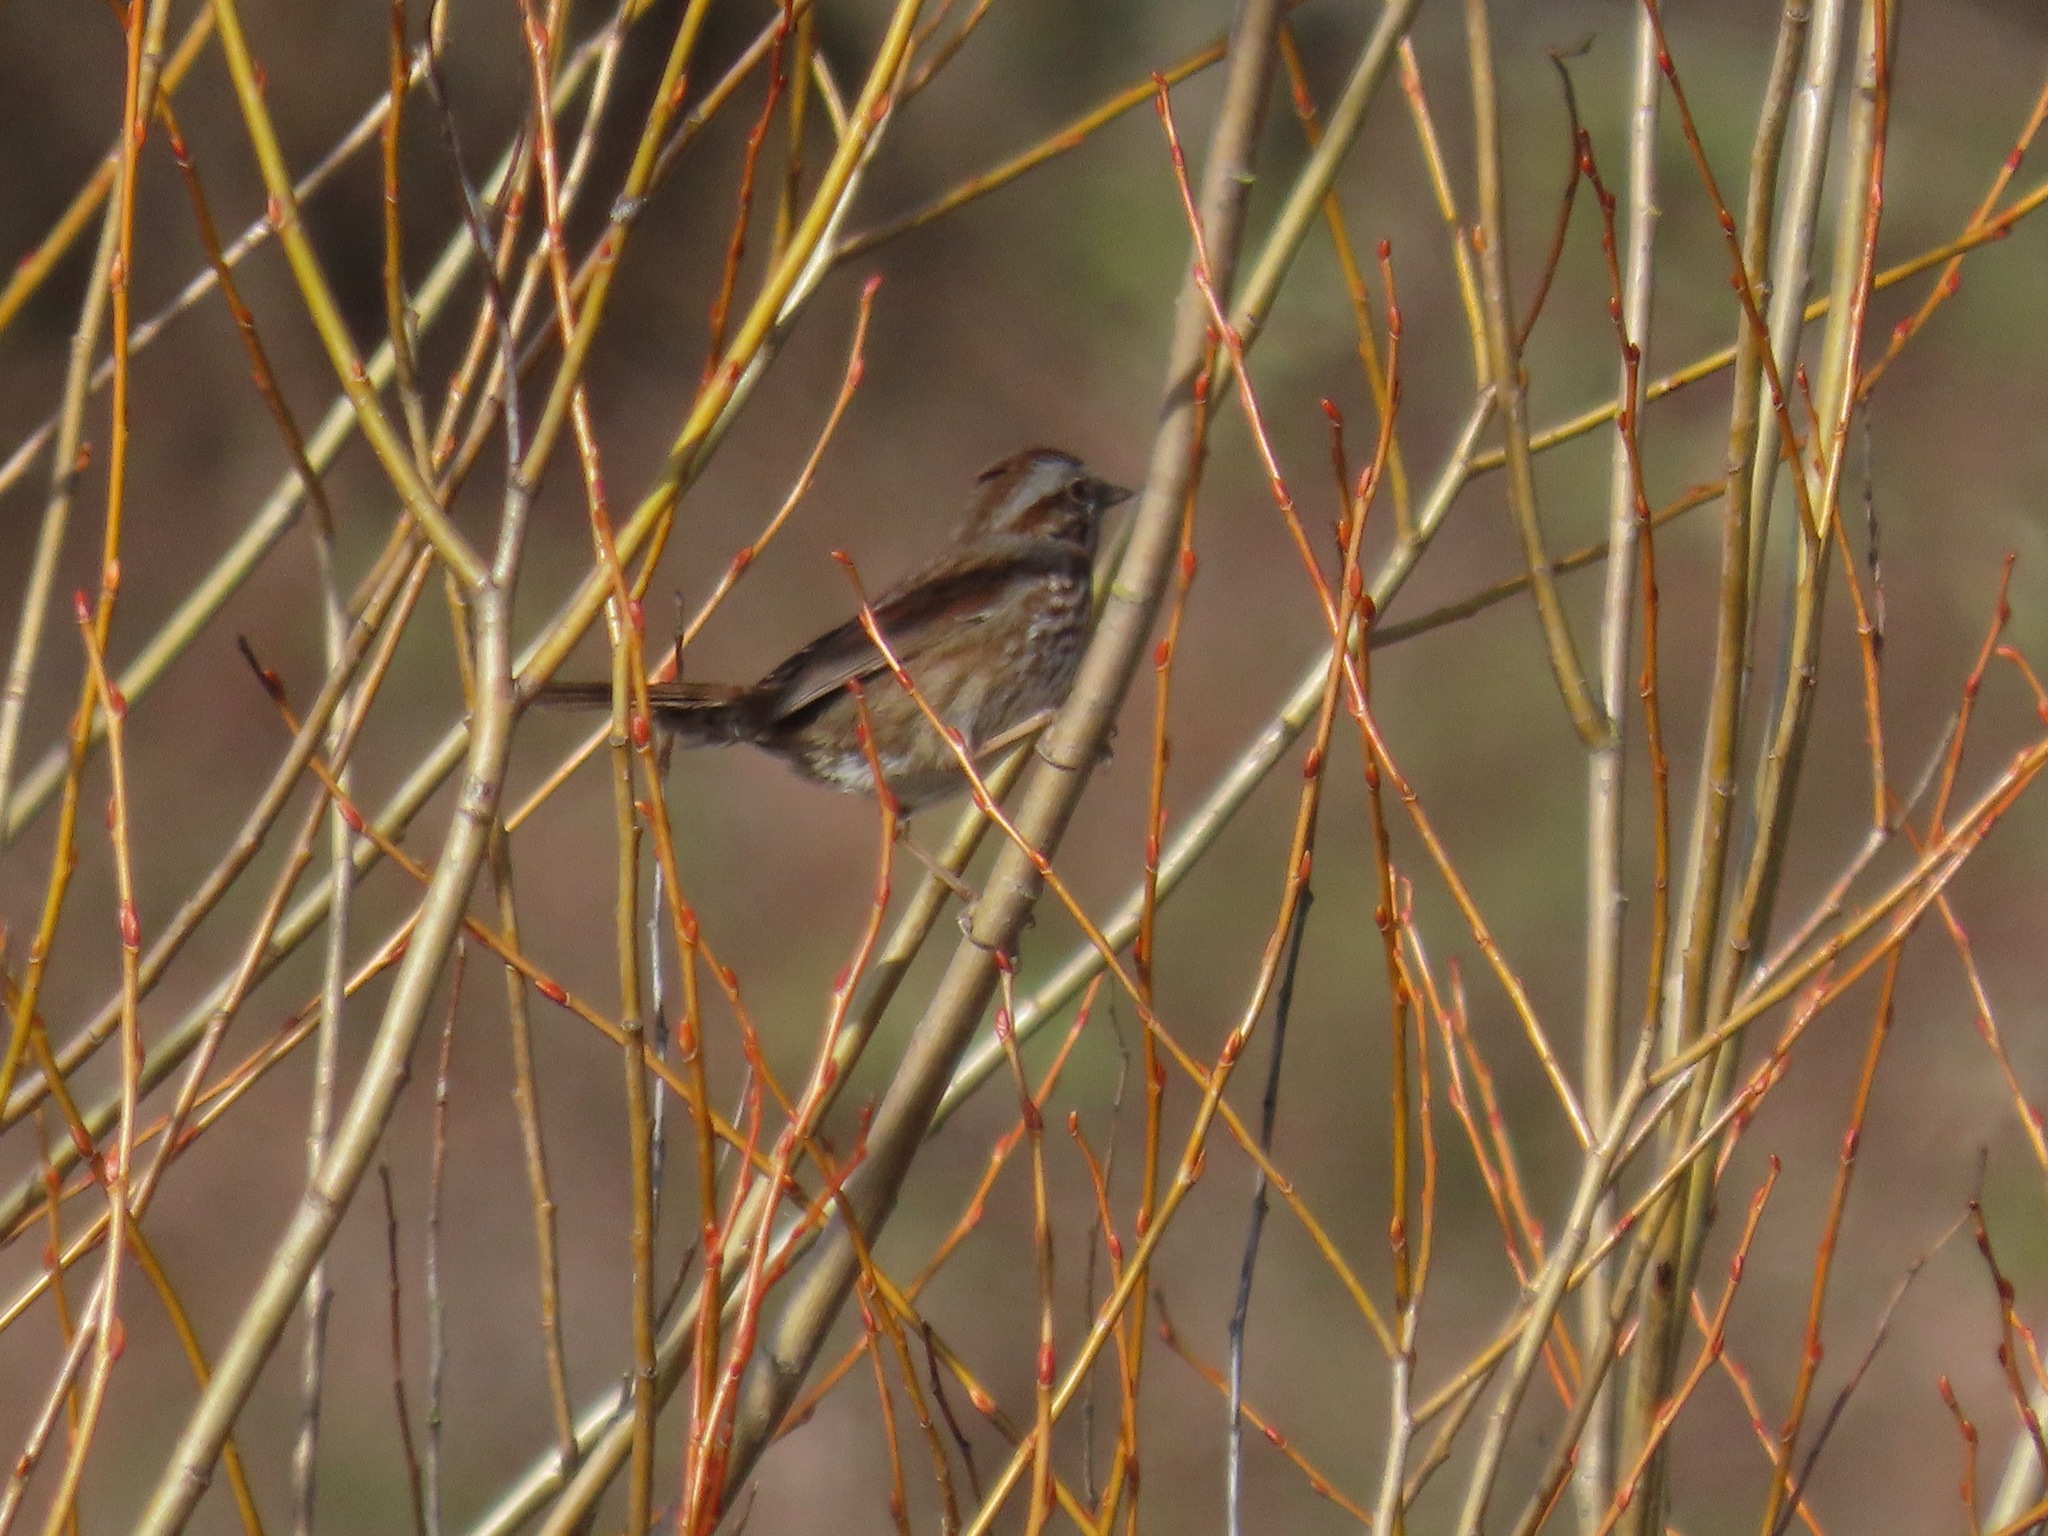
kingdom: Animalia
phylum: Chordata
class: Aves
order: Passeriformes
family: Passerellidae
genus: Melospiza
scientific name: Melospiza melodia
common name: Song sparrow
